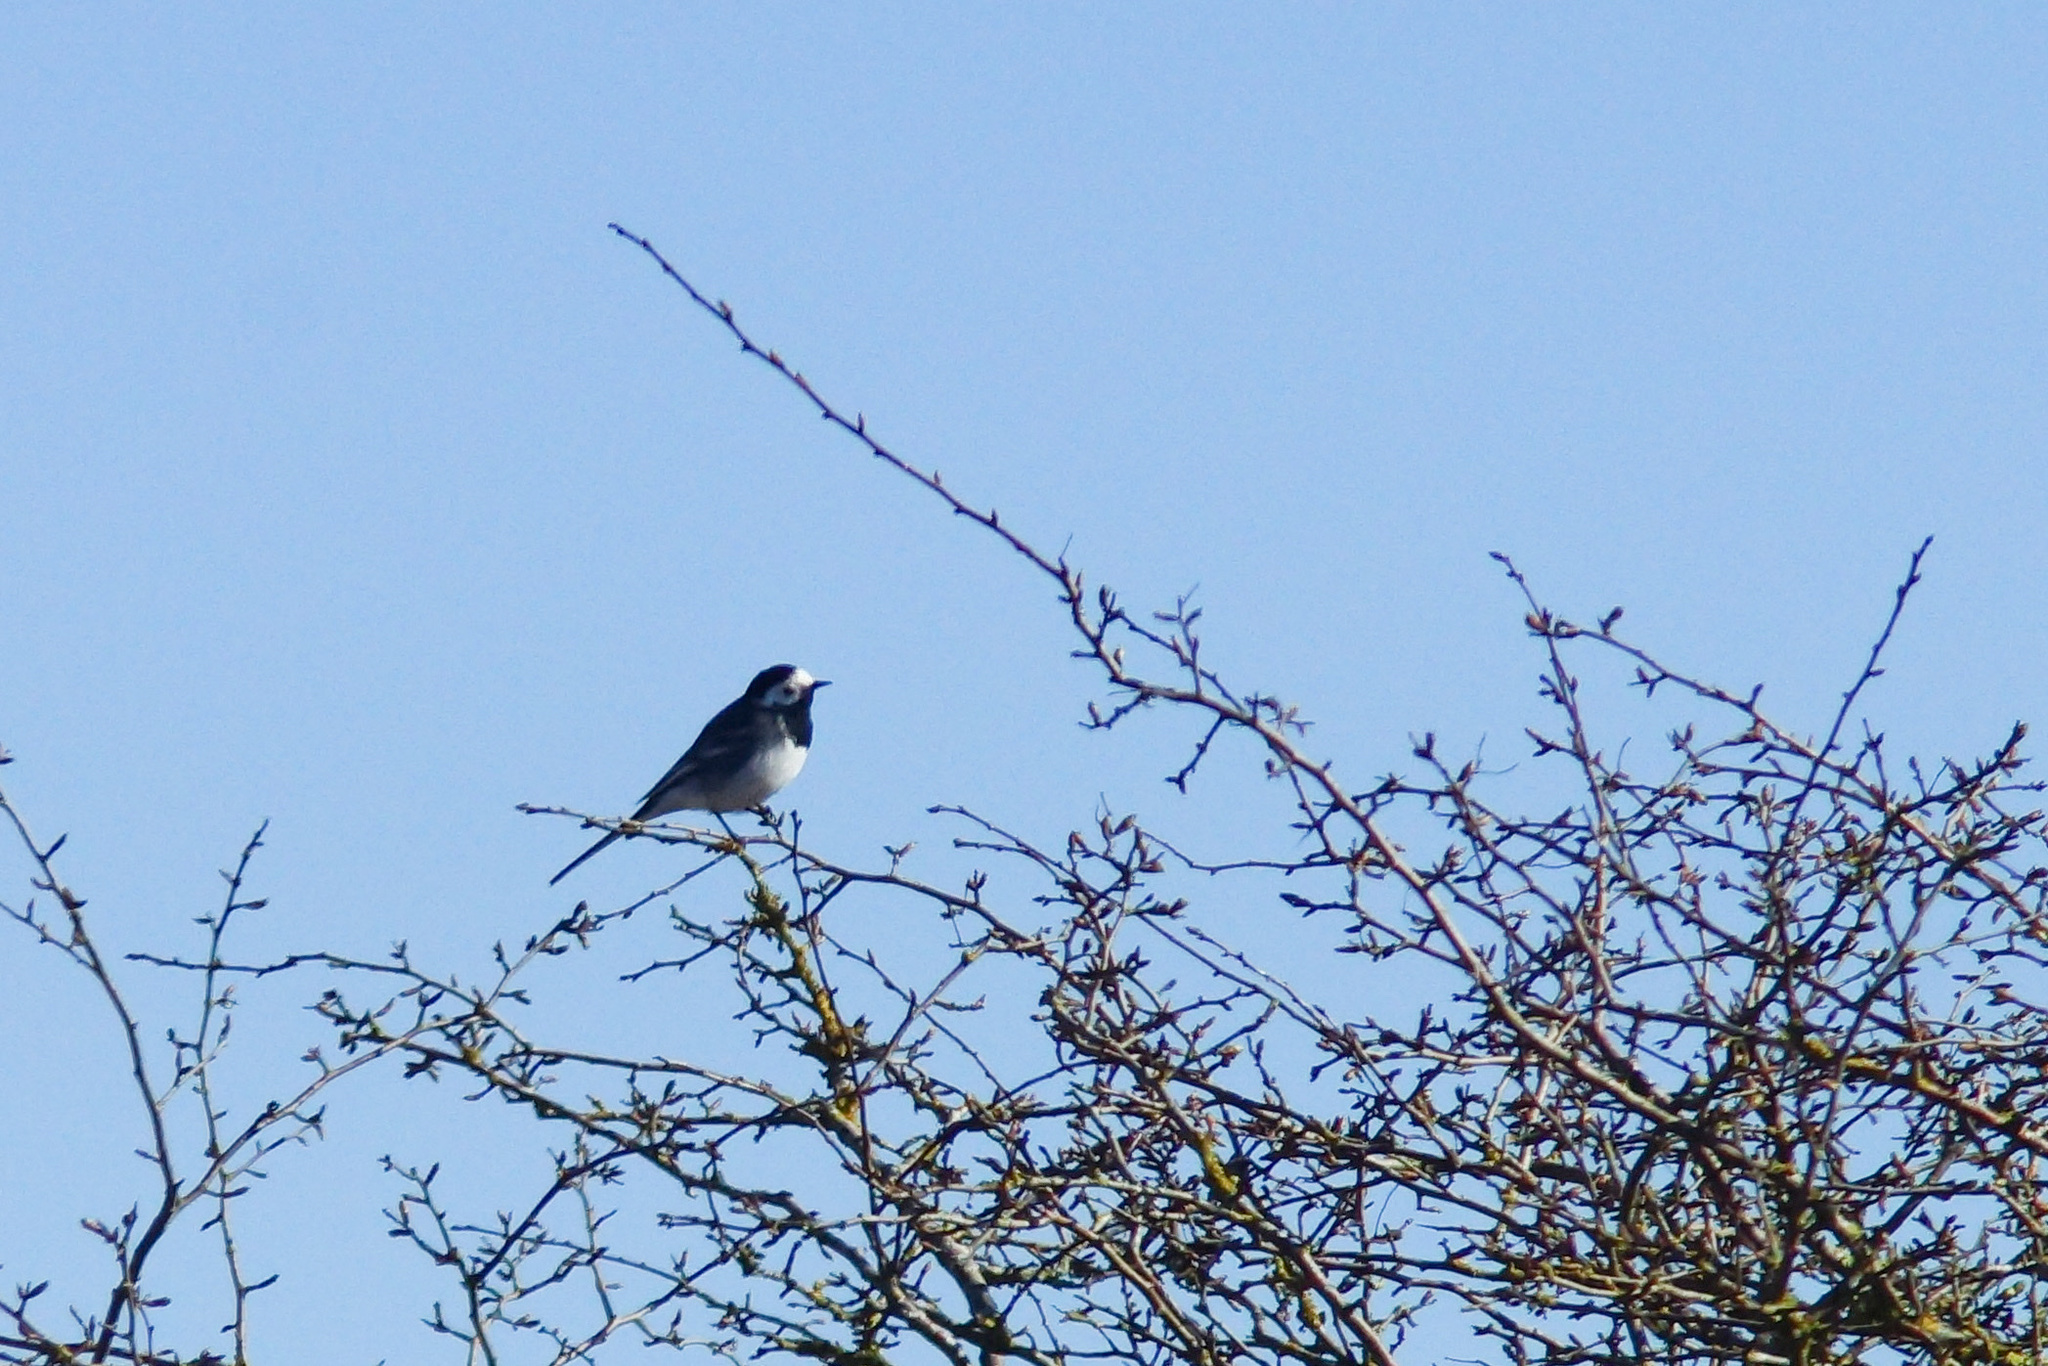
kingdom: Animalia
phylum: Chordata
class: Aves
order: Passeriformes
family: Motacillidae
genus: Motacilla
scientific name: Motacilla alba
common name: White wagtail
